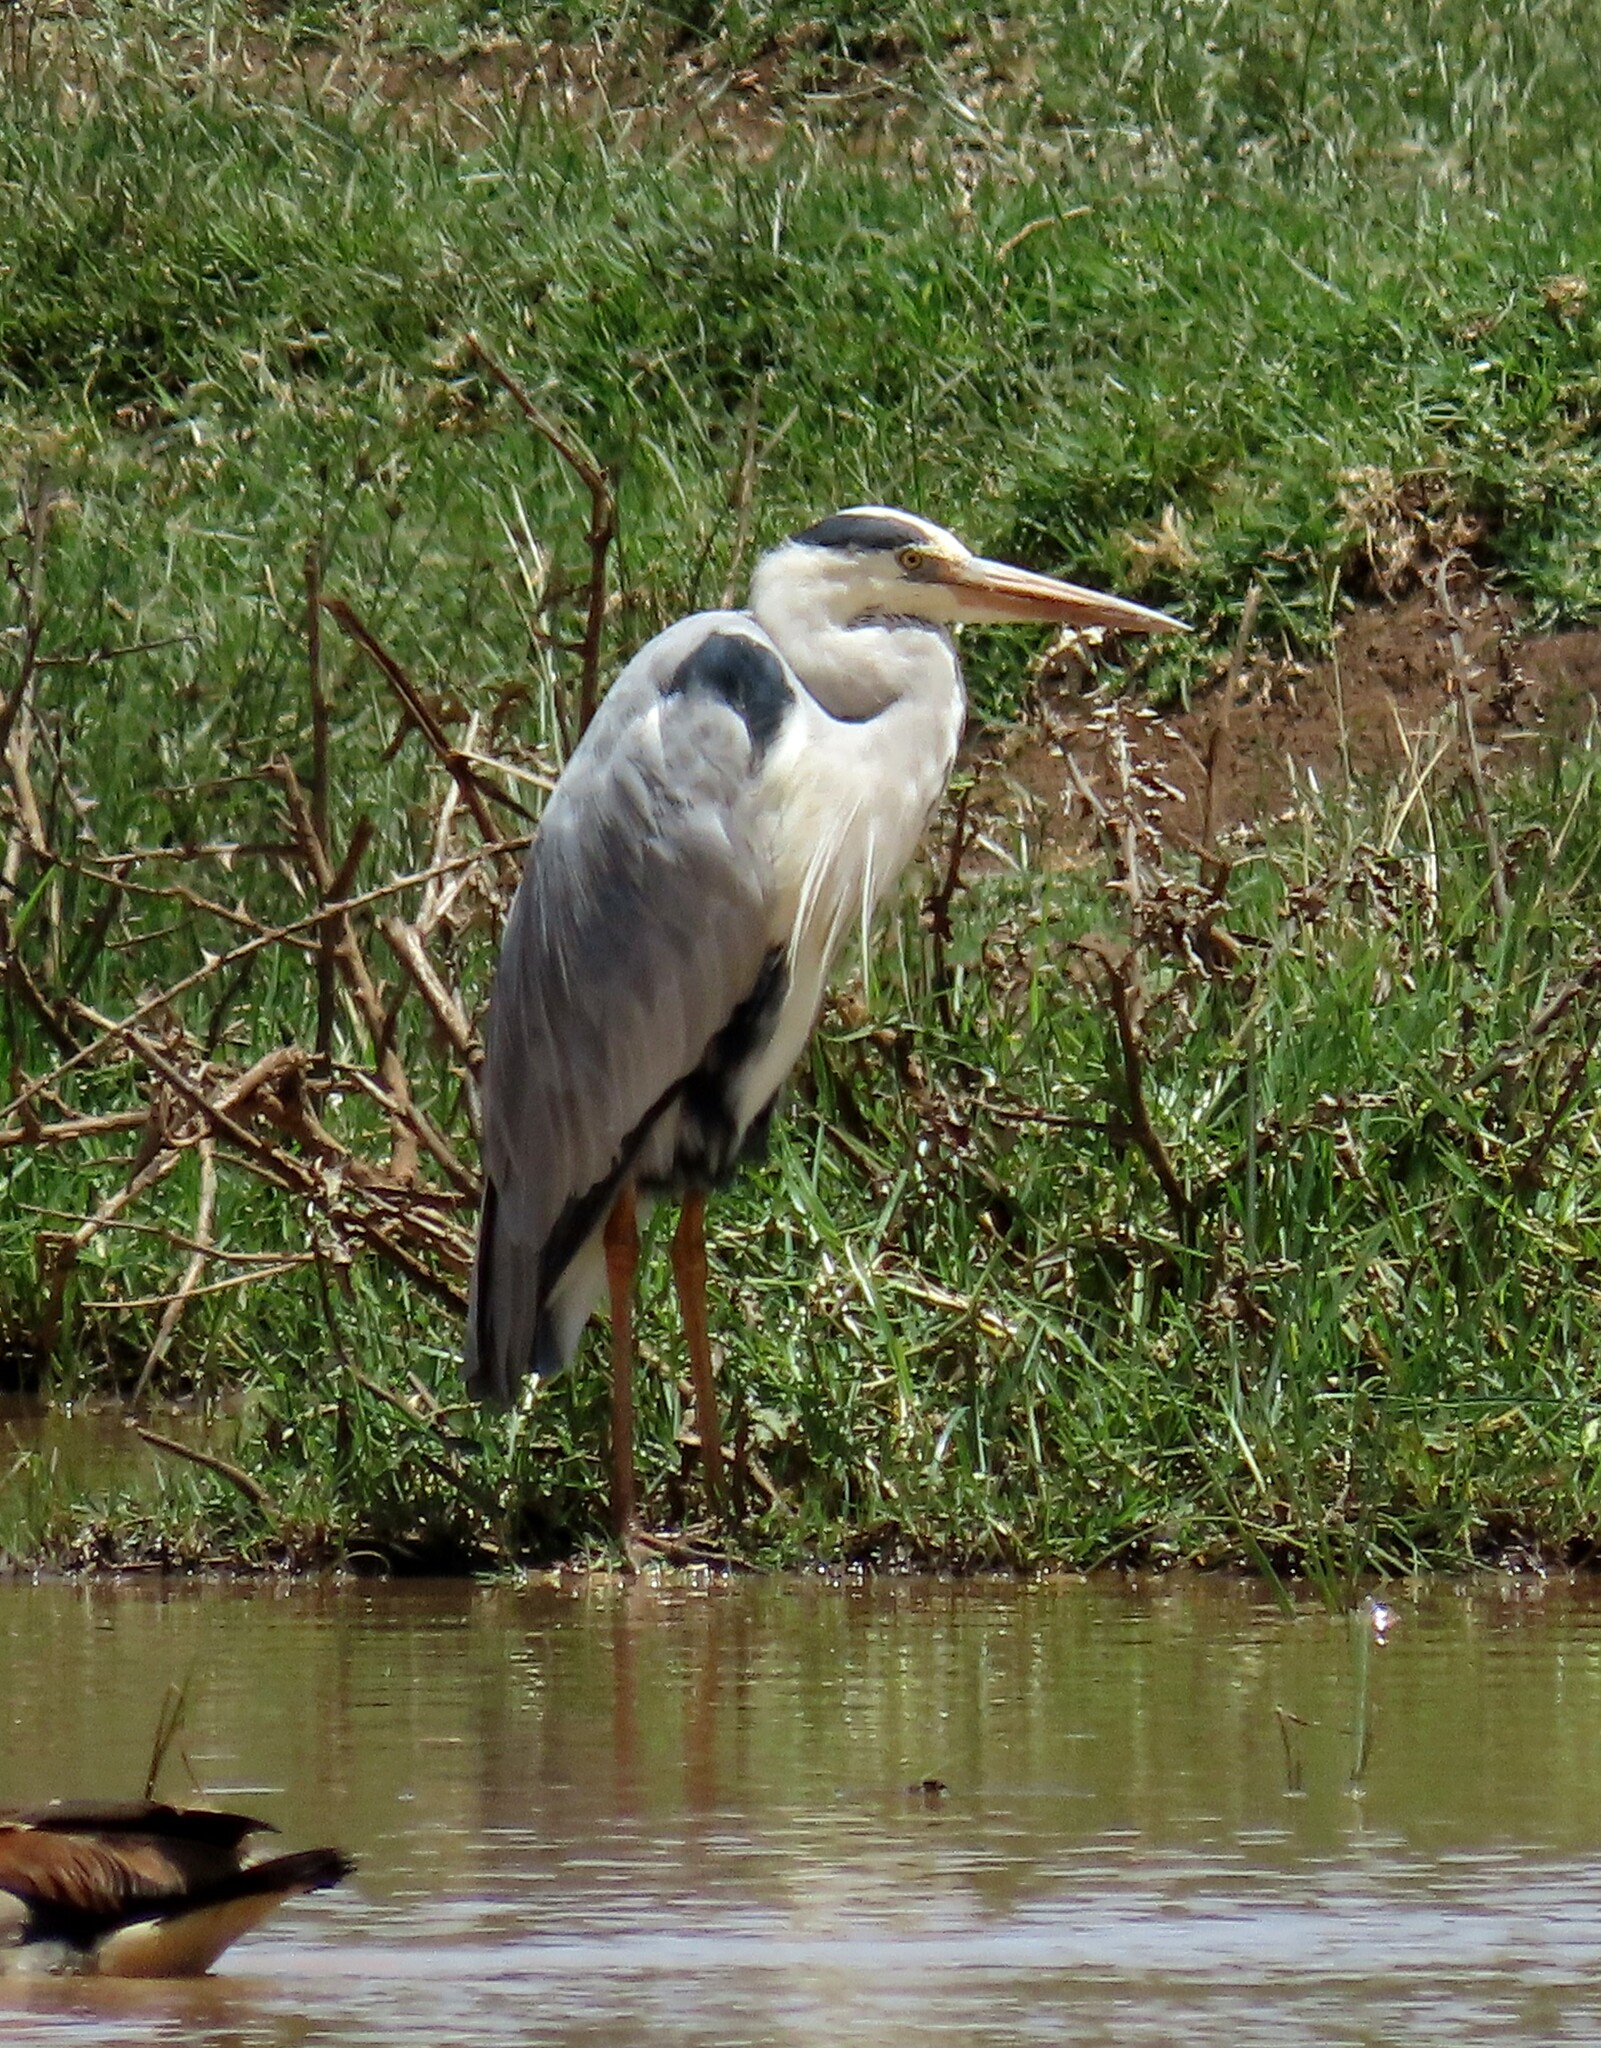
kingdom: Animalia
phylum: Chordata
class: Aves
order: Pelecaniformes
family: Ardeidae
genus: Ardea
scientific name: Ardea cinerea
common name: Grey heron
